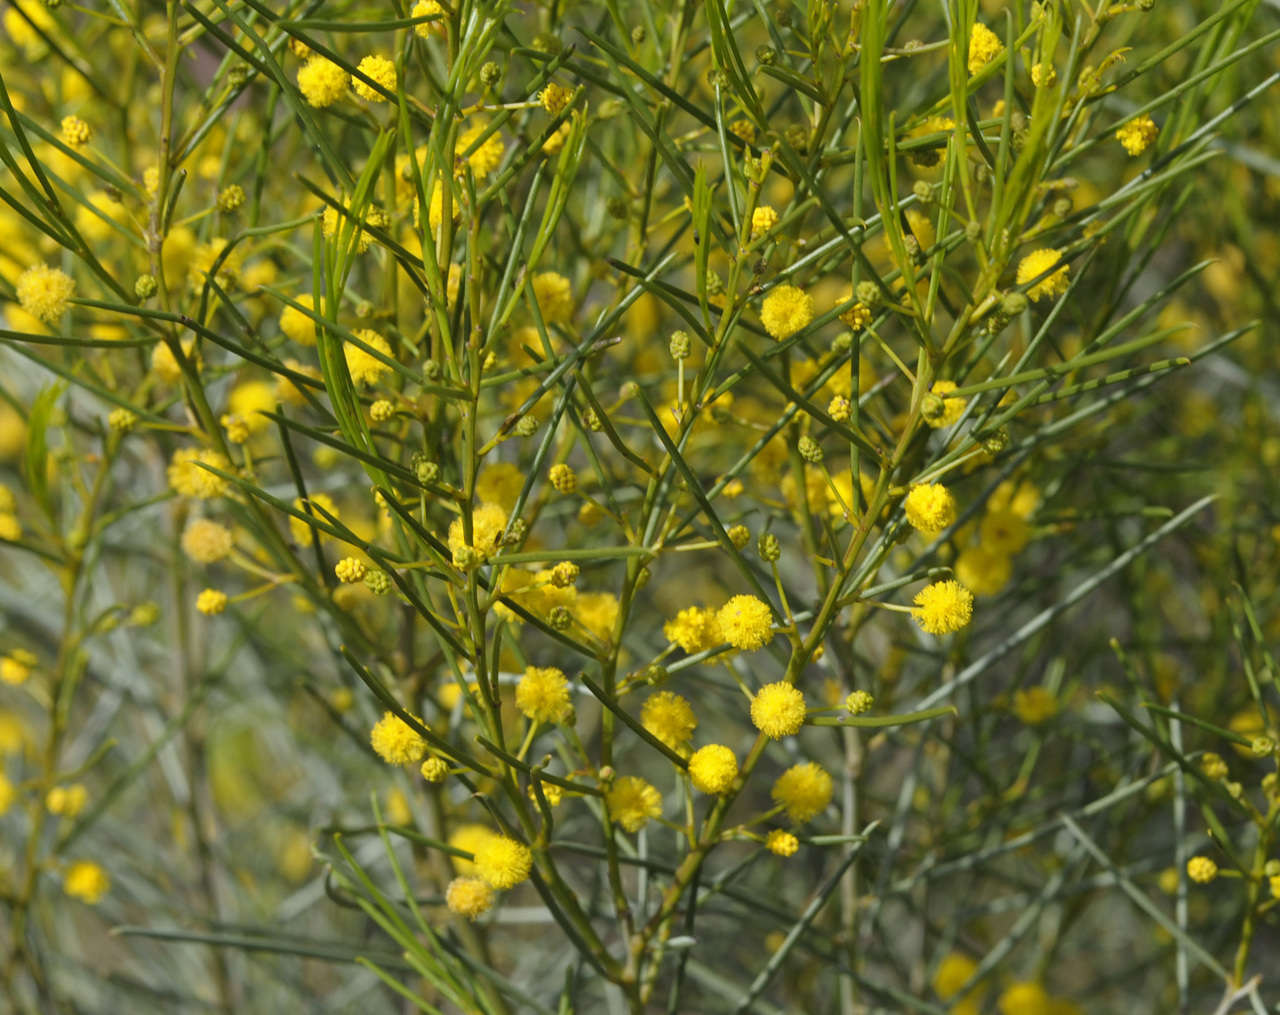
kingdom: Plantae
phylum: Tracheophyta
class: Magnoliopsida
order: Fabales
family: Fabaceae
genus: Acacia
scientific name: Acacia euthycarpa
